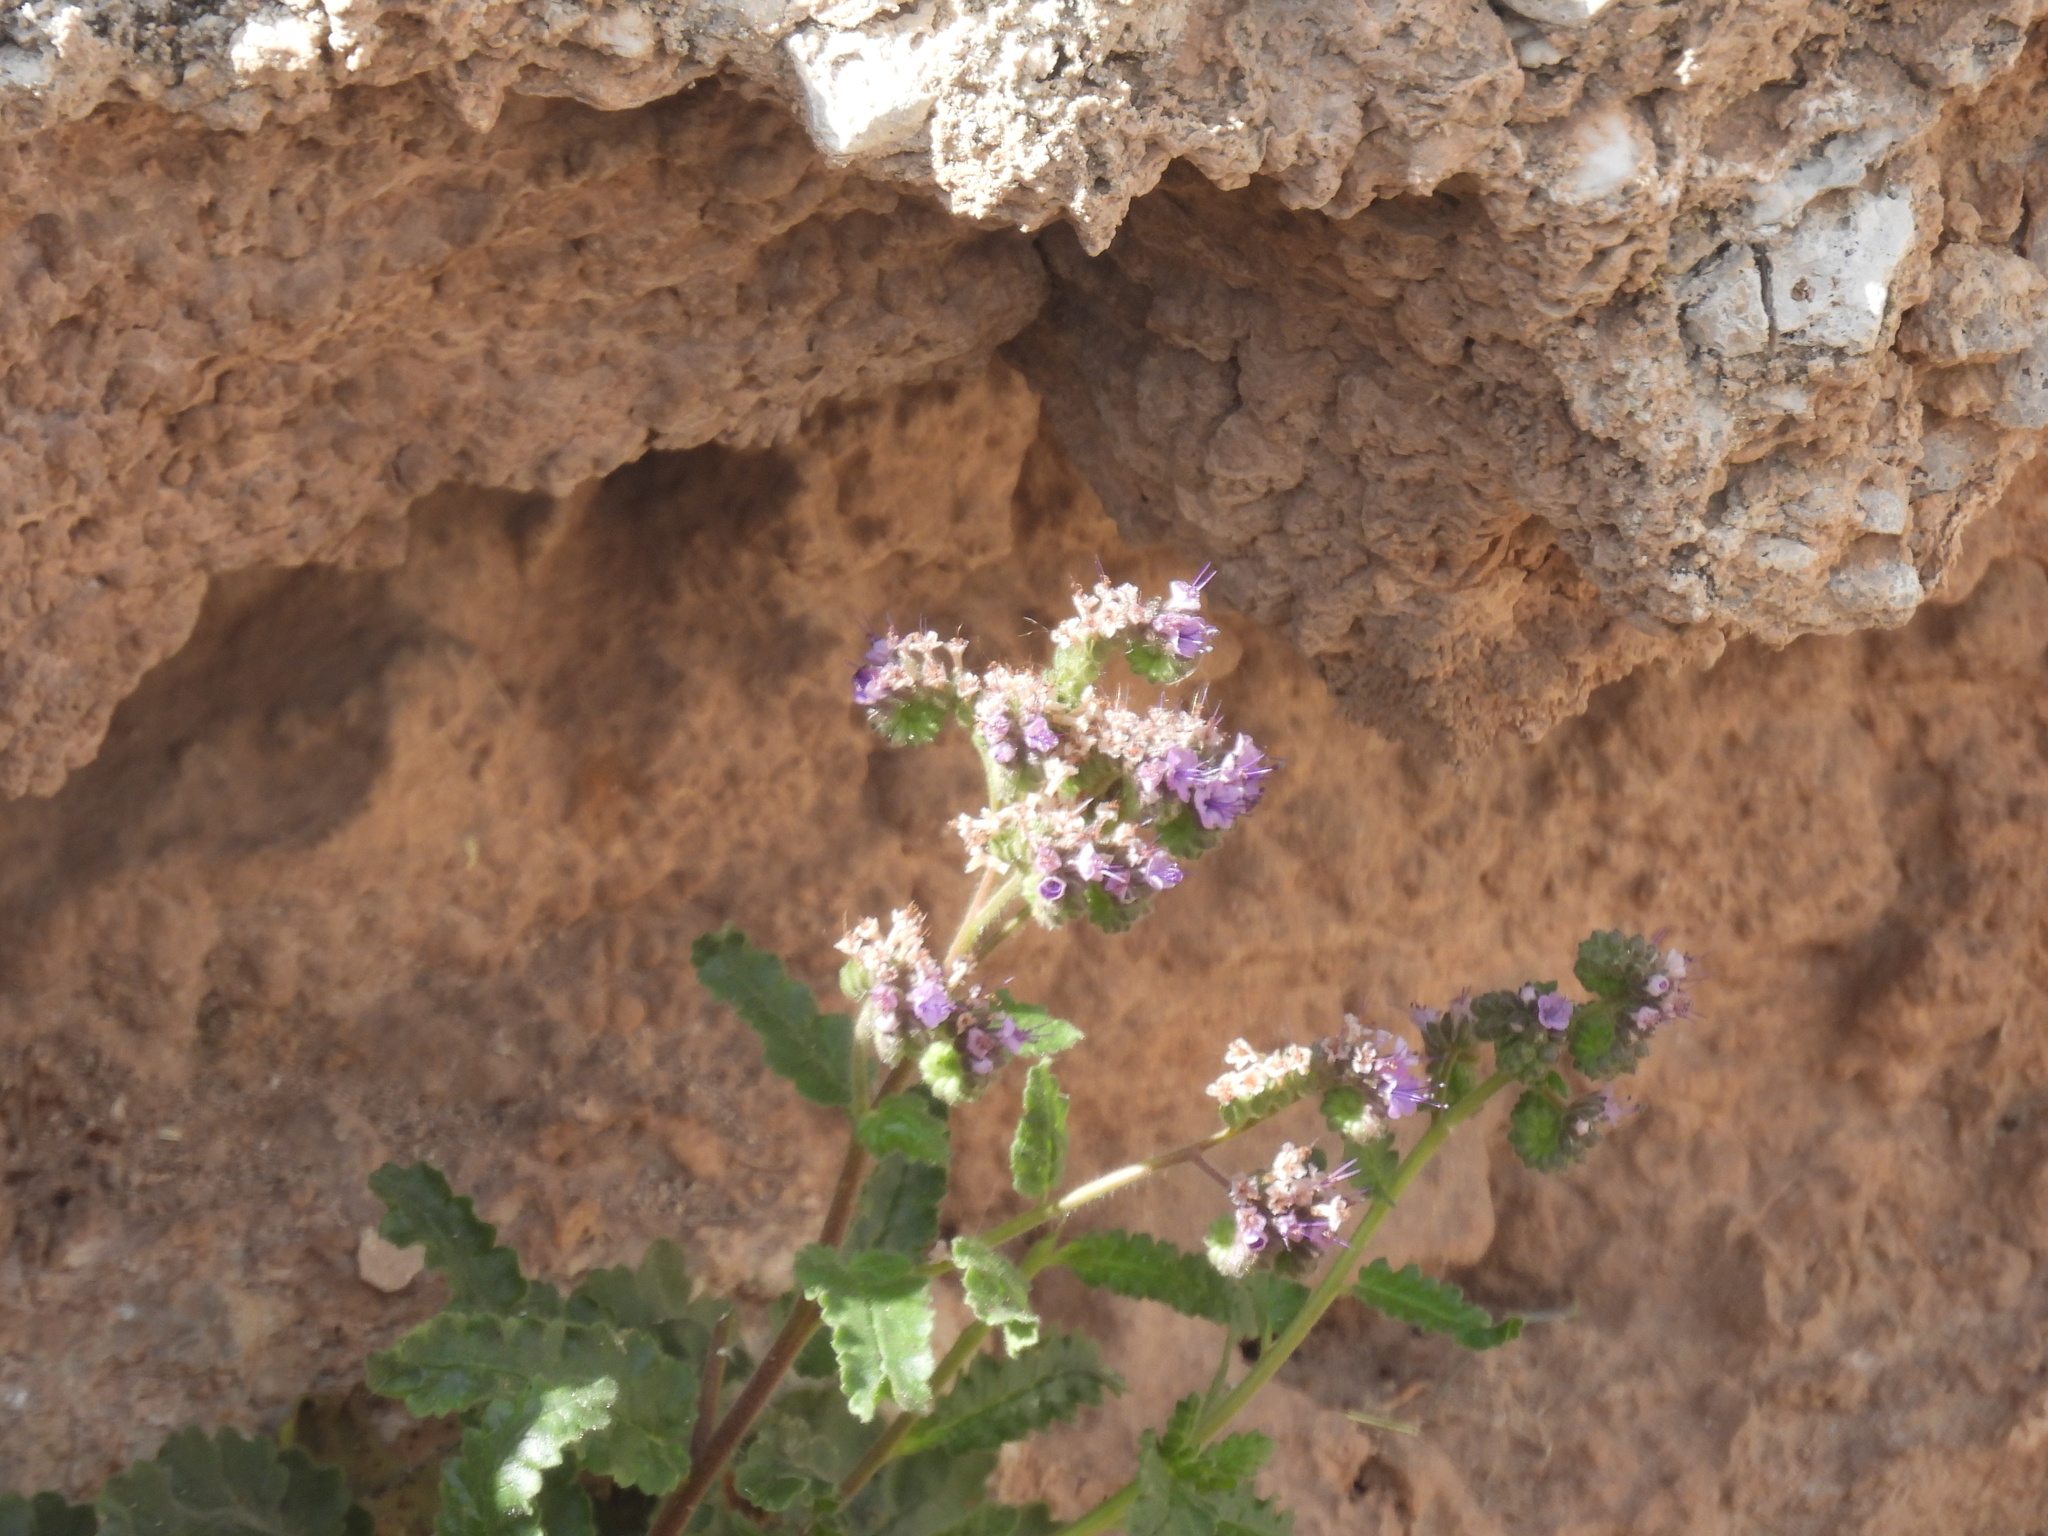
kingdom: Plantae
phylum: Tracheophyta
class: Magnoliopsida
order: Boraginales
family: Hydrophyllaceae
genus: Phacelia
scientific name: Phacelia integrifolia
